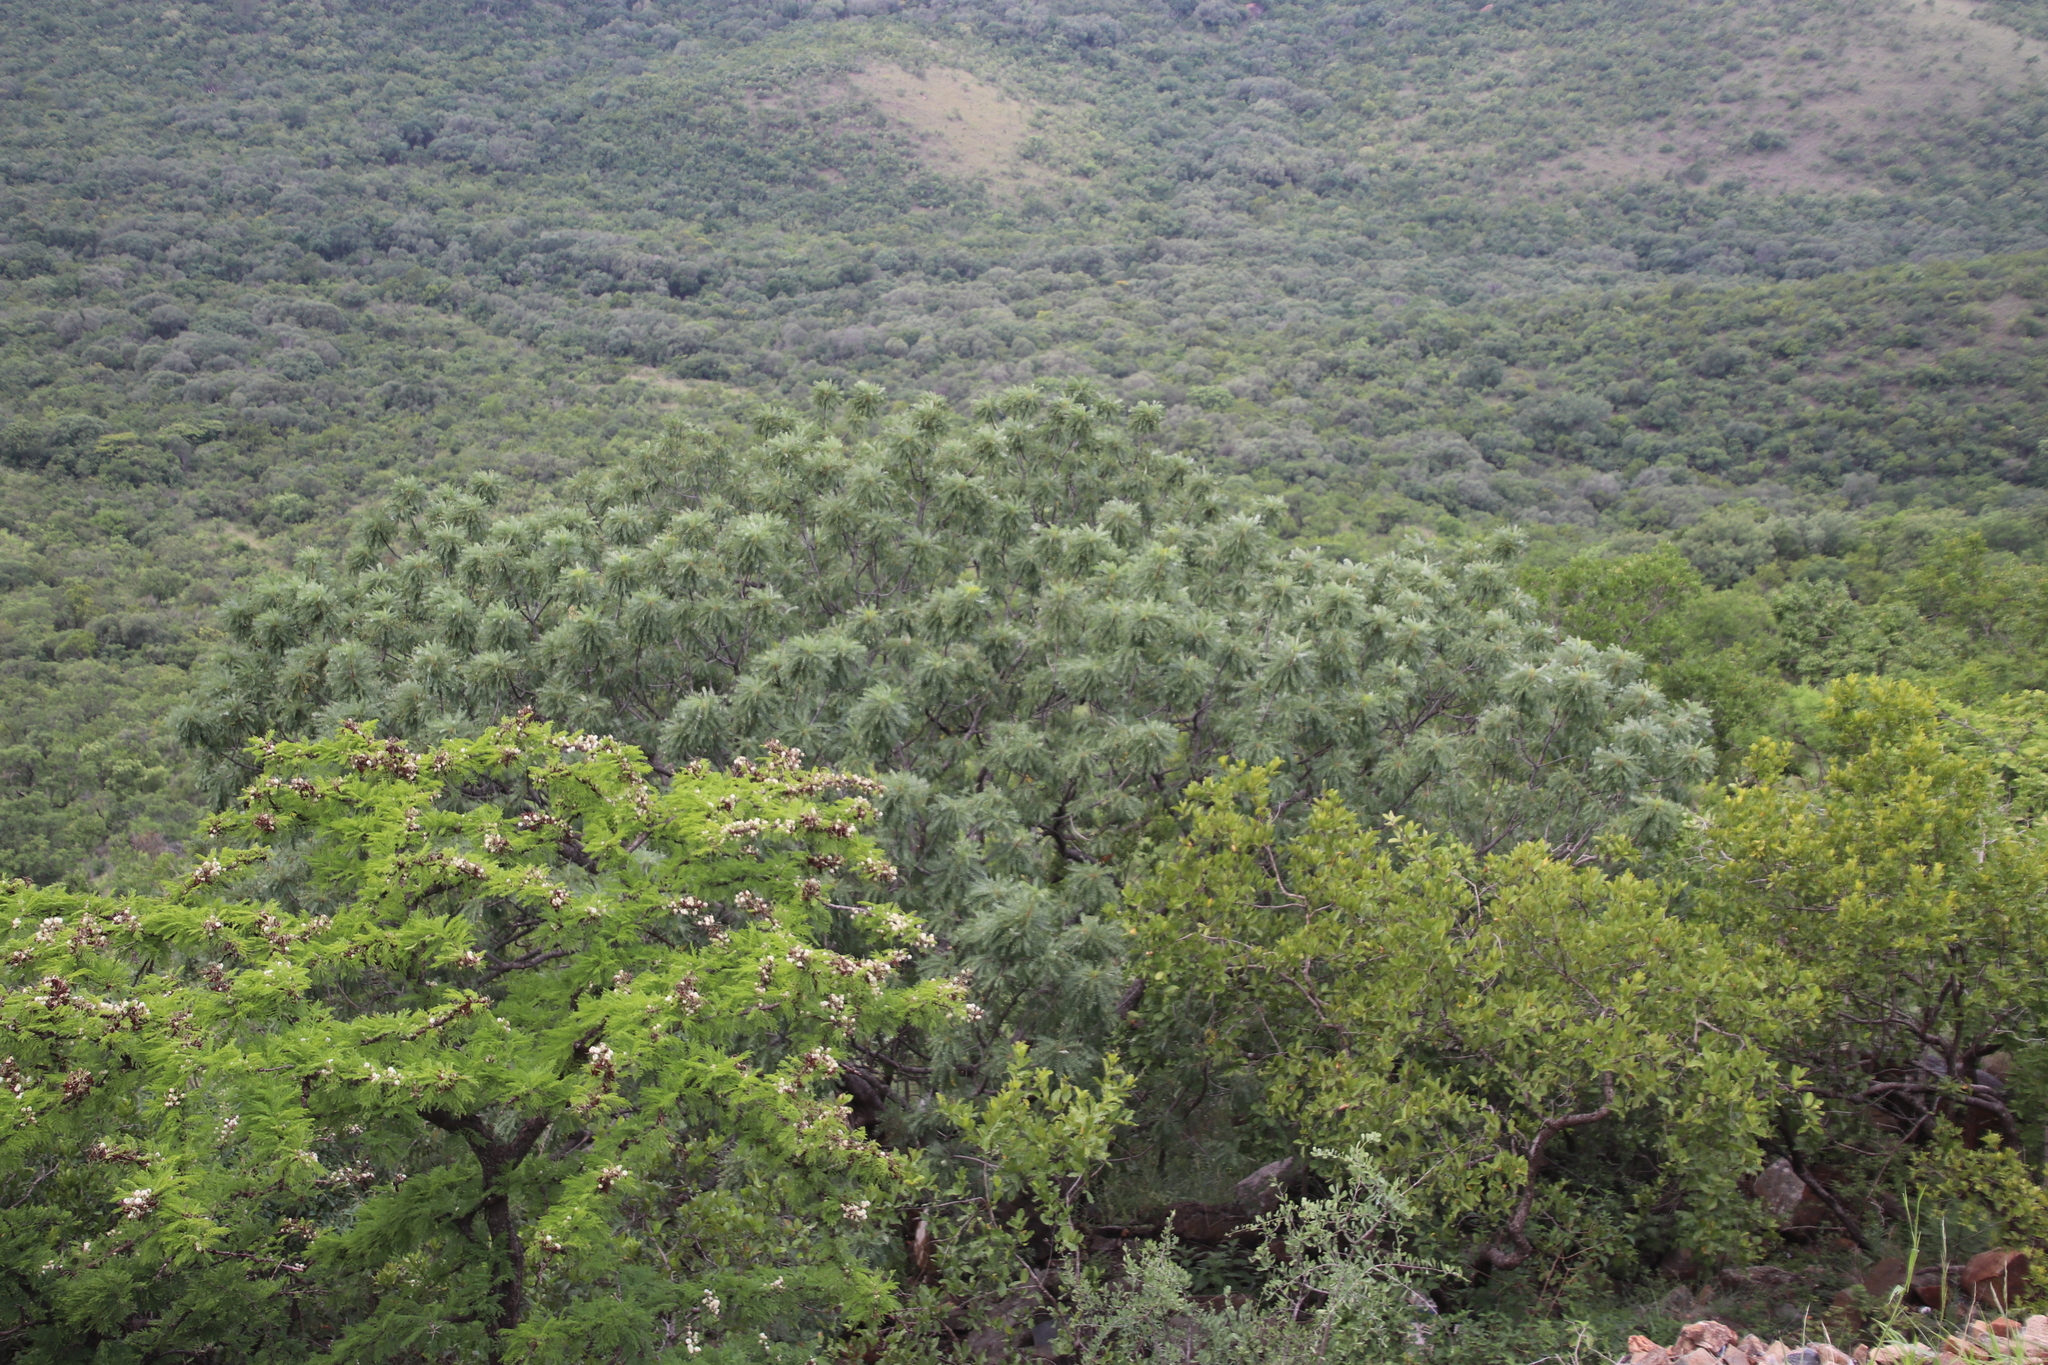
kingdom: Plantae
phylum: Tracheophyta
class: Magnoliopsida
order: Sapindales
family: Kirkiaceae
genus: Kirkia
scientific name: Kirkia wilmsii
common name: Mountain seringa
